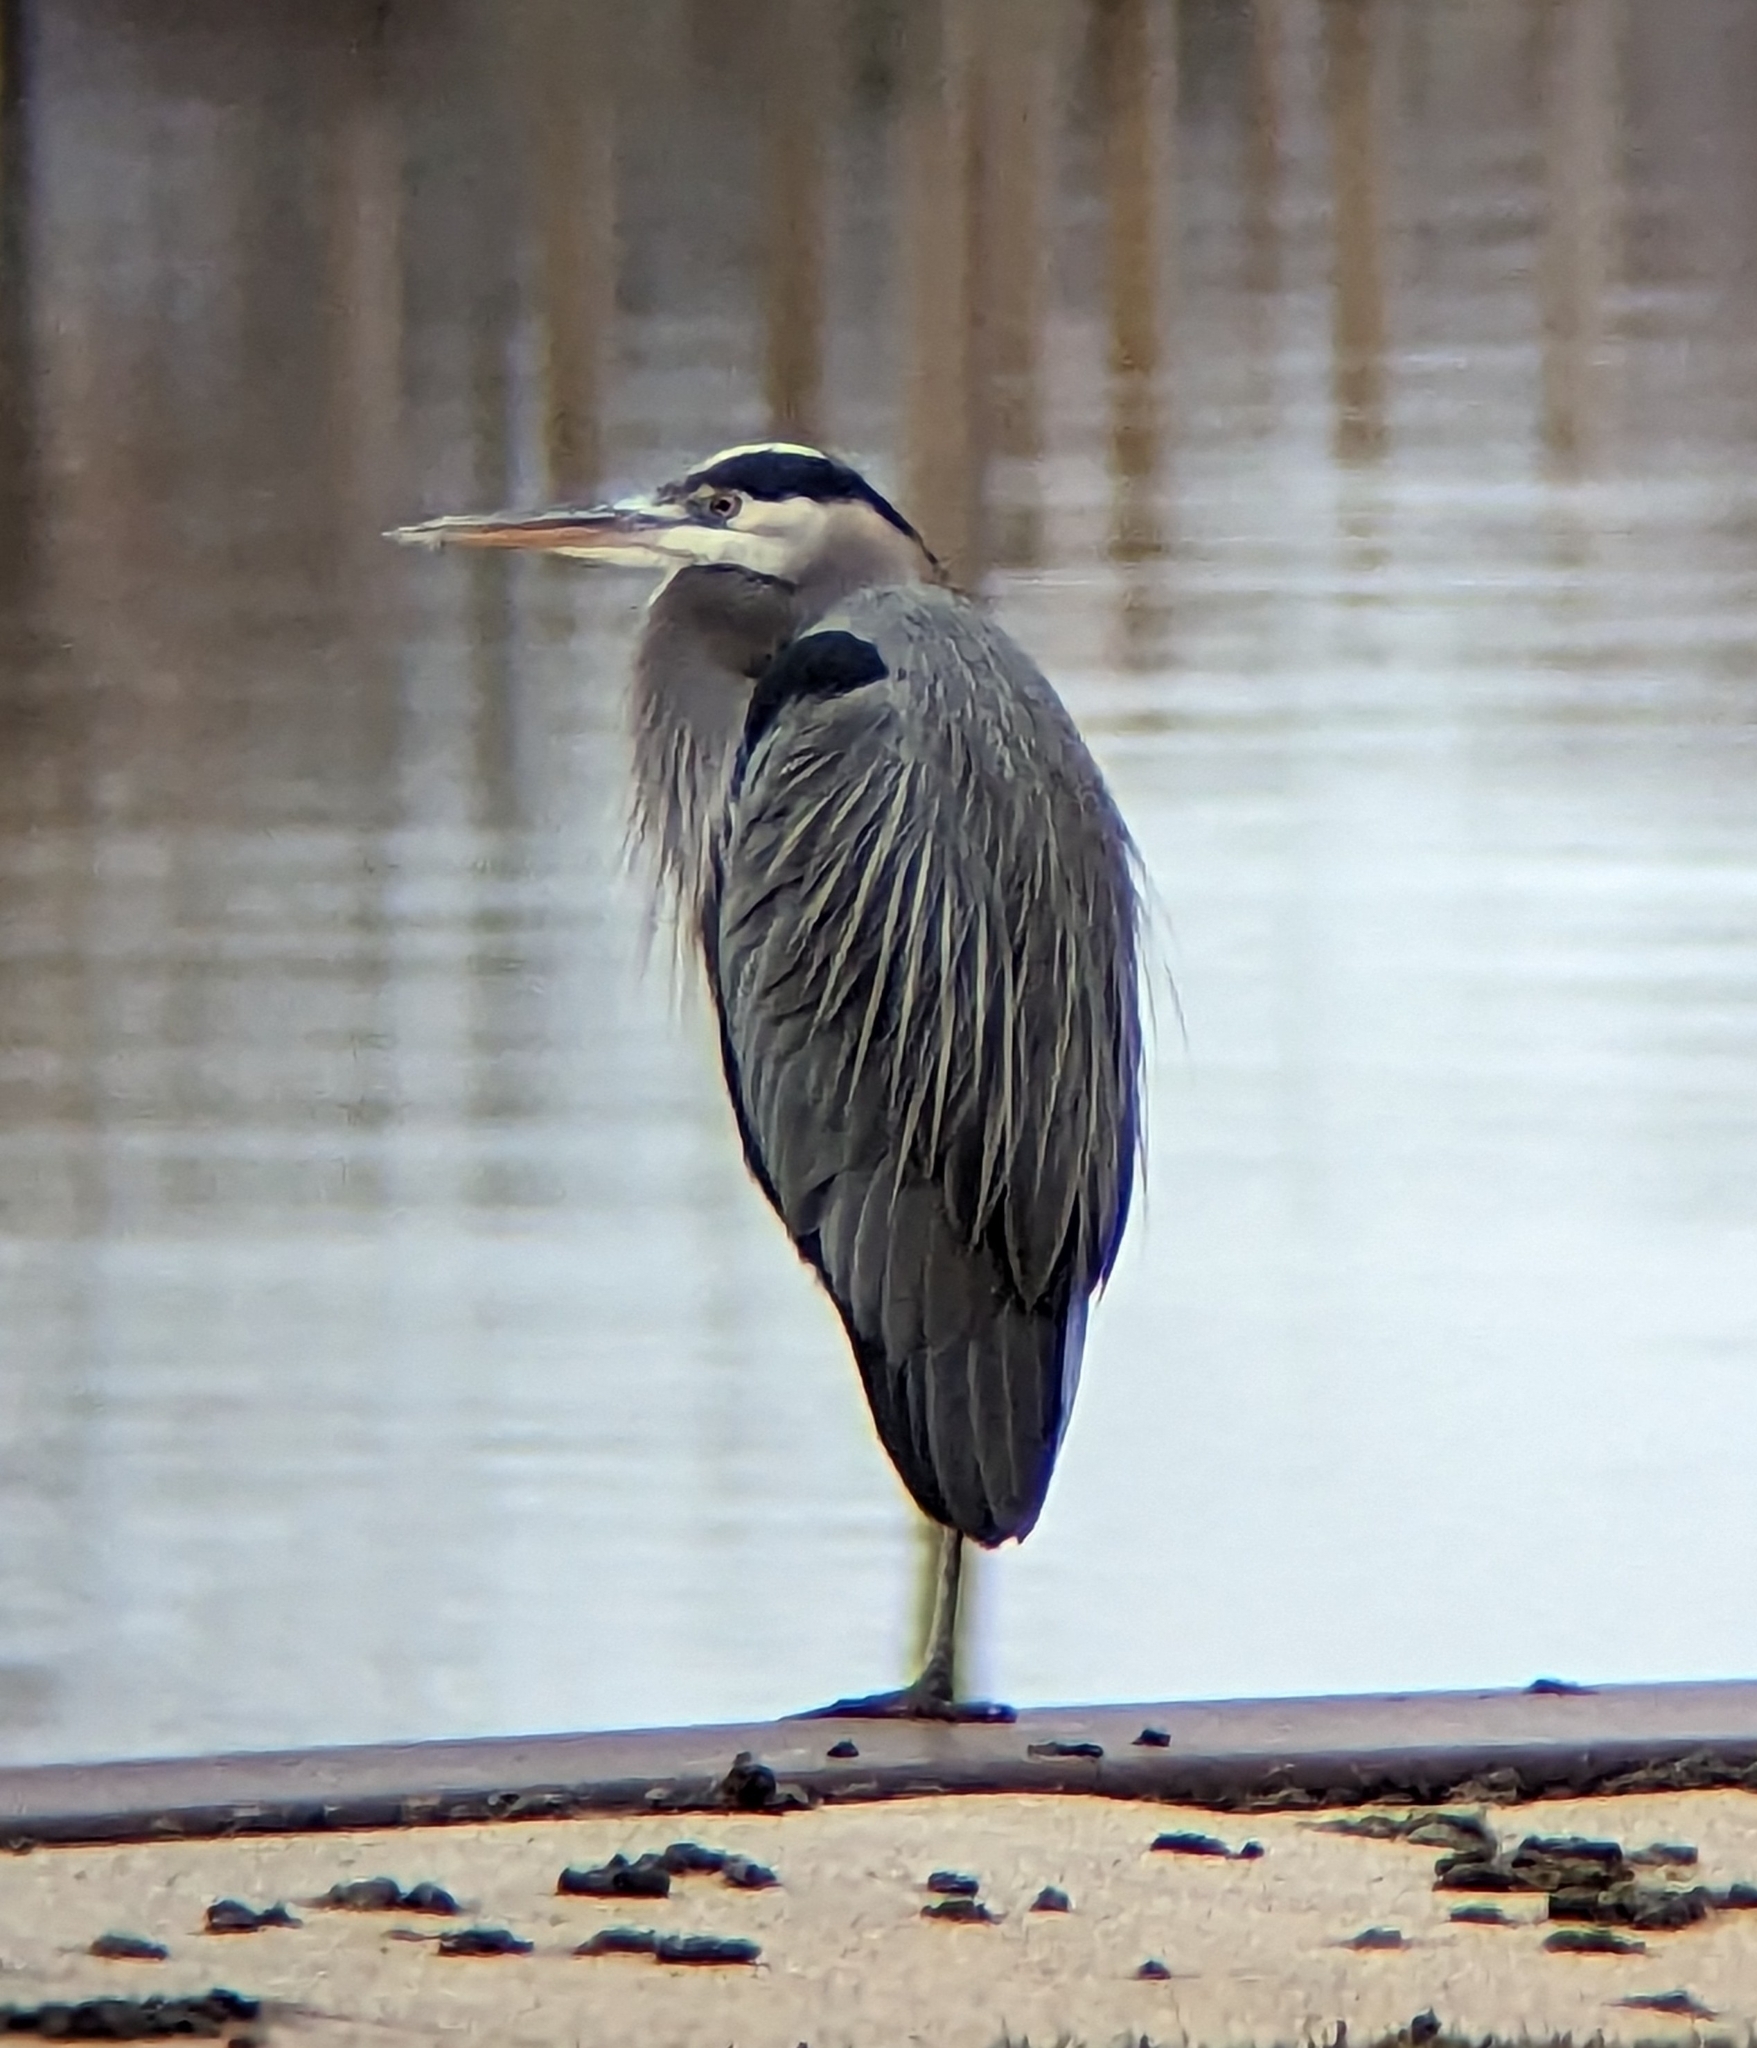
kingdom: Animalia
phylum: Chordata
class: Aves
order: Pelecaniformes
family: Ardeidae
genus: Ardea
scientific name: Ardea herodias
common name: Great blue heron
